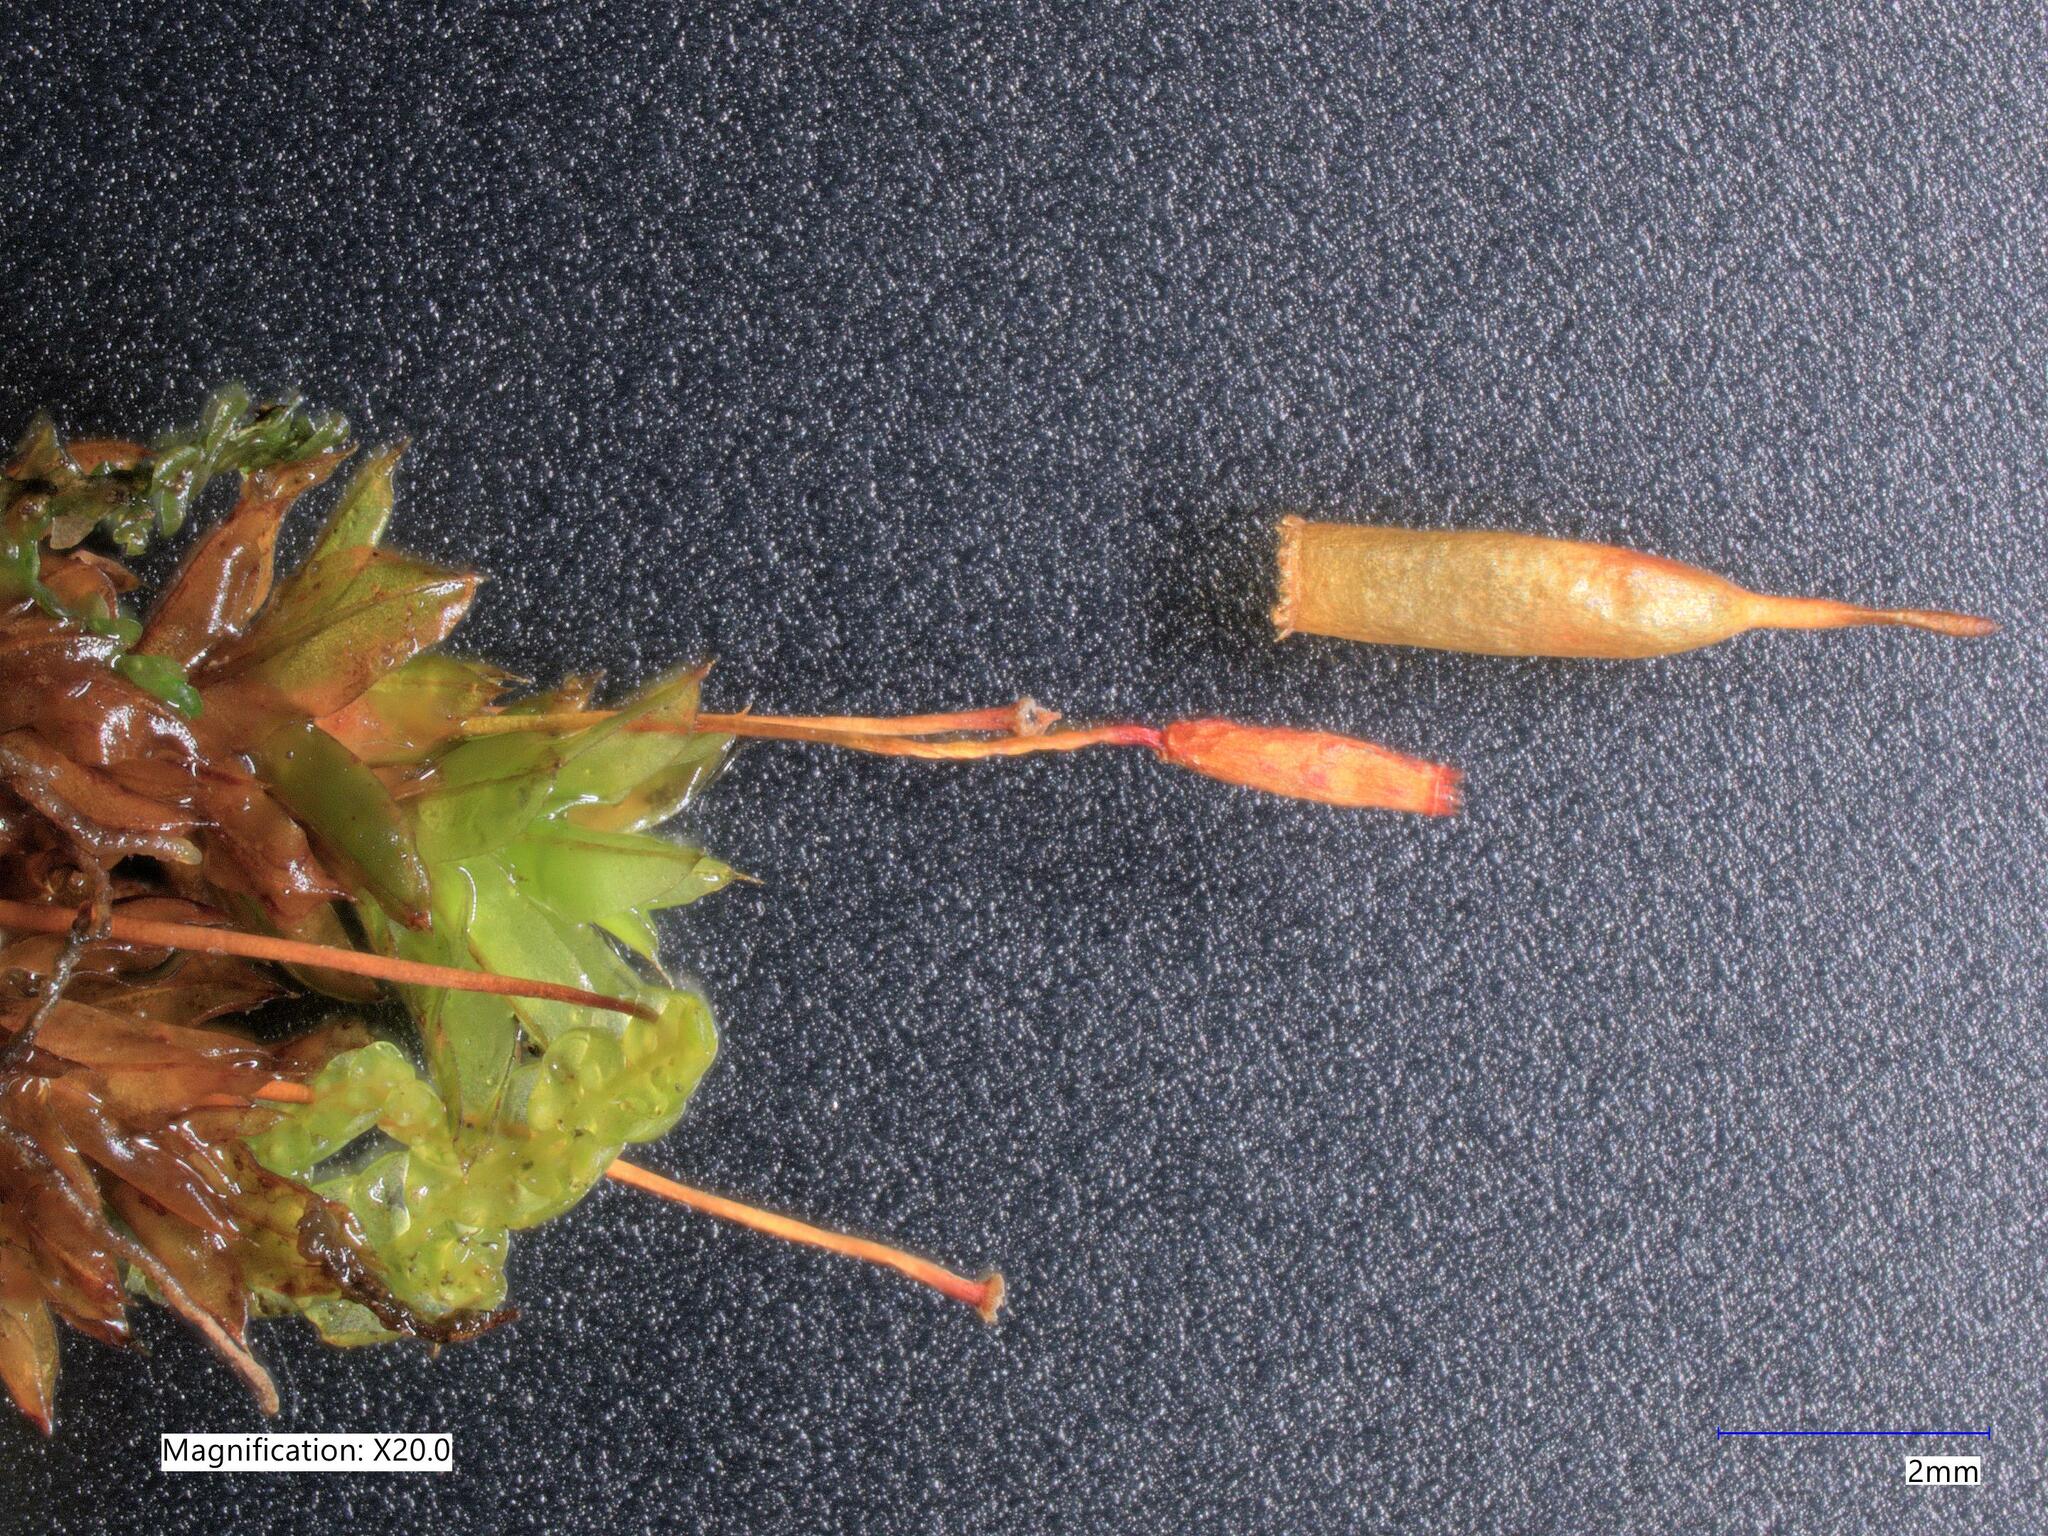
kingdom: Plantae
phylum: Bryophyta
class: Bryopsida
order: Encalyptales
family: Encalyptaceae
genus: Encalypta
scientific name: Encalypta ciliata
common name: Fringed extinguisher-moss
